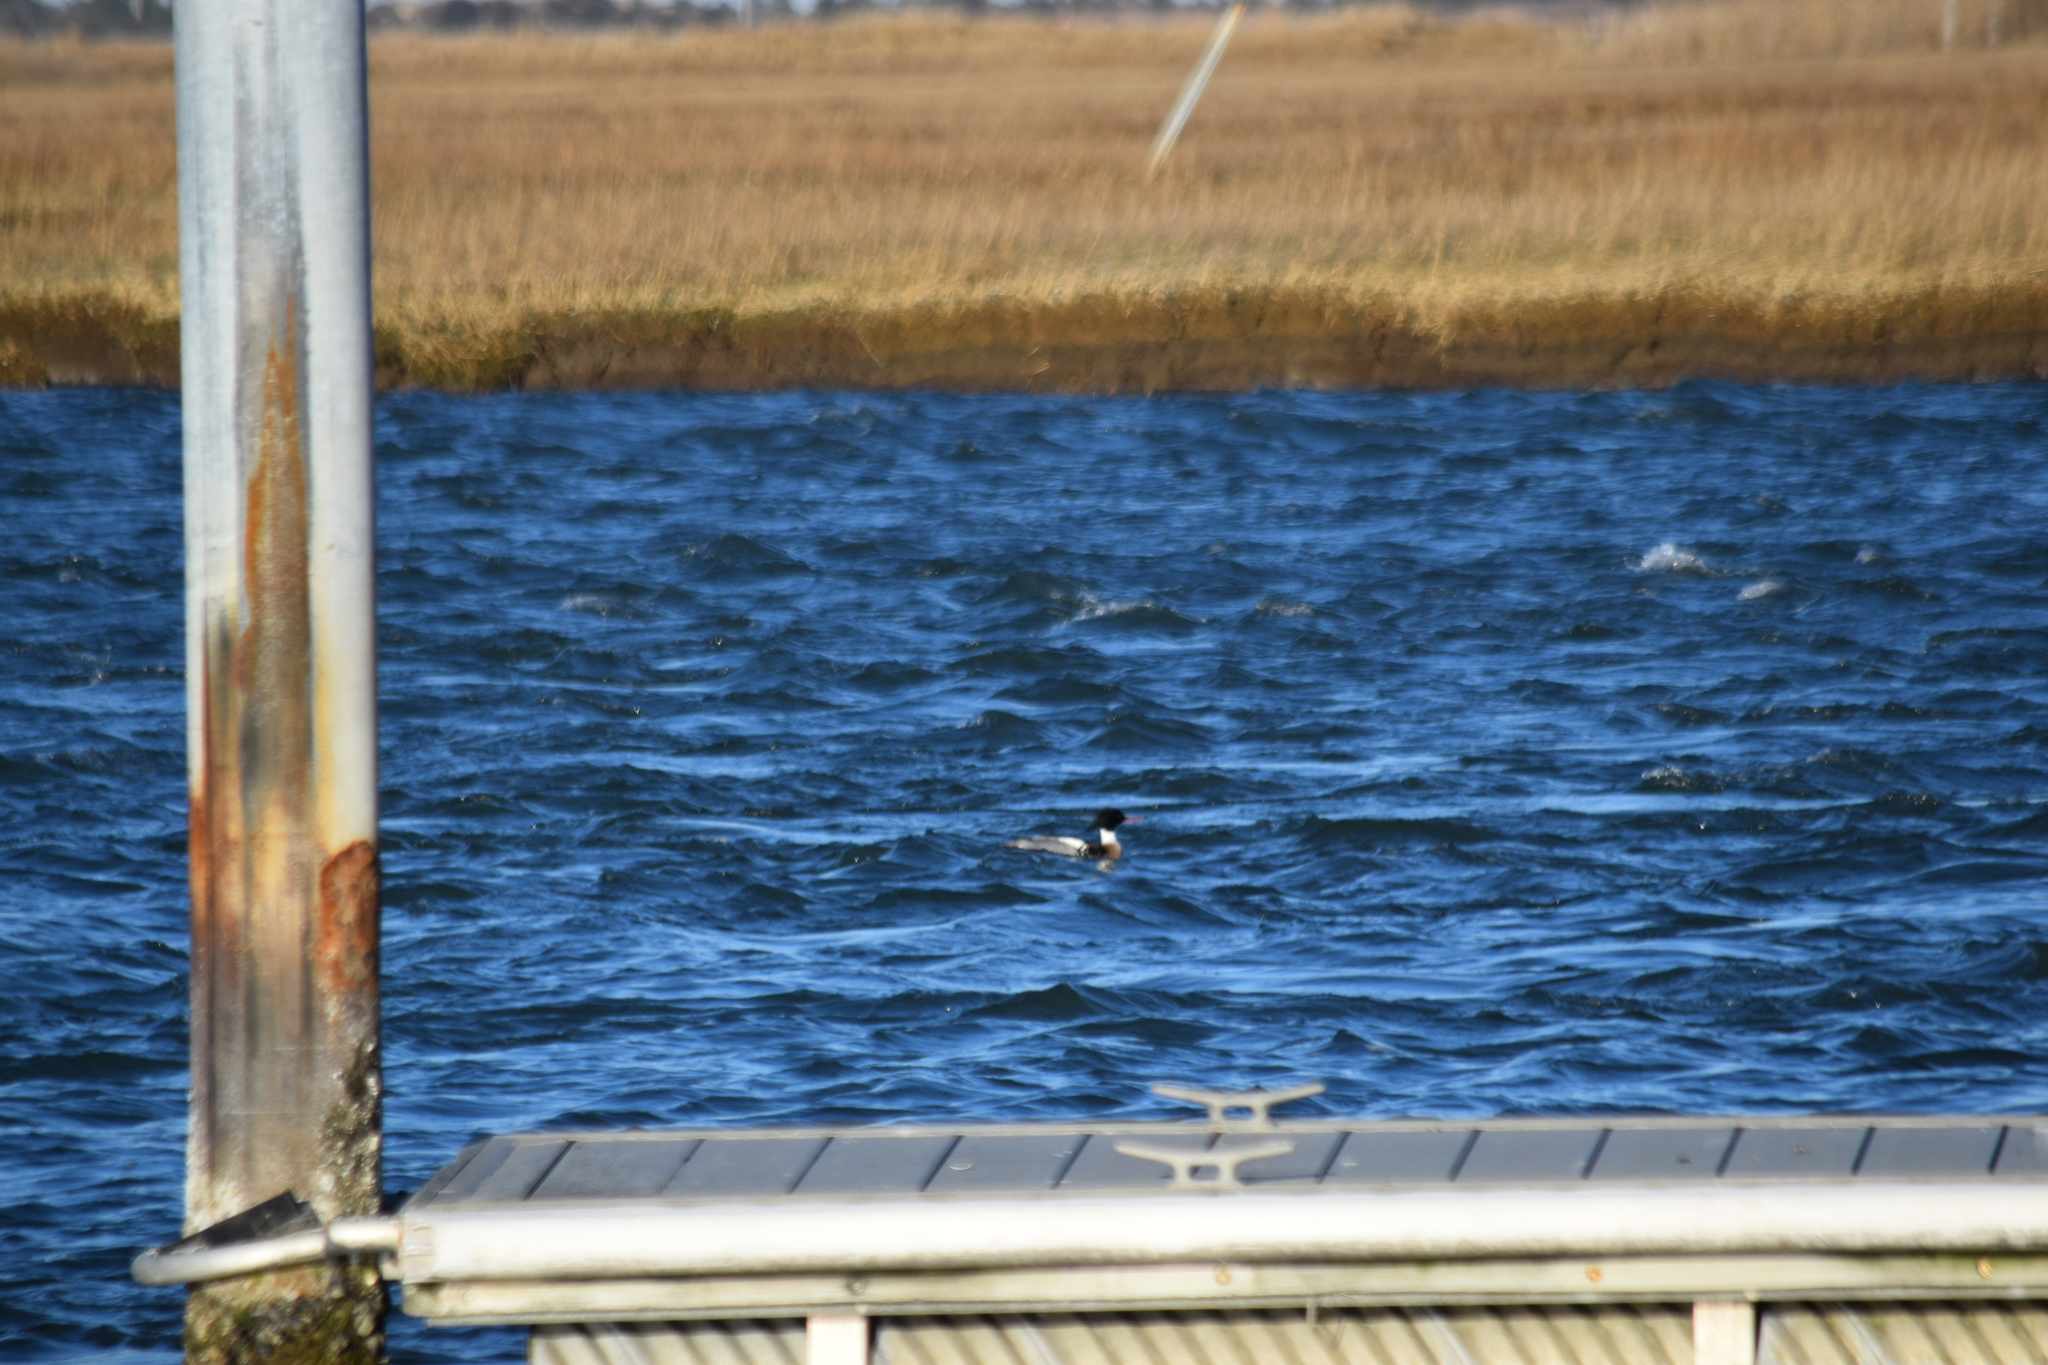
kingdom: Animalia
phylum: Chordata
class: Aves
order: Anseriformes
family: Anatidae
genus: Mergus
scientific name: Mergus serrator
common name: Red-breasted merganser
